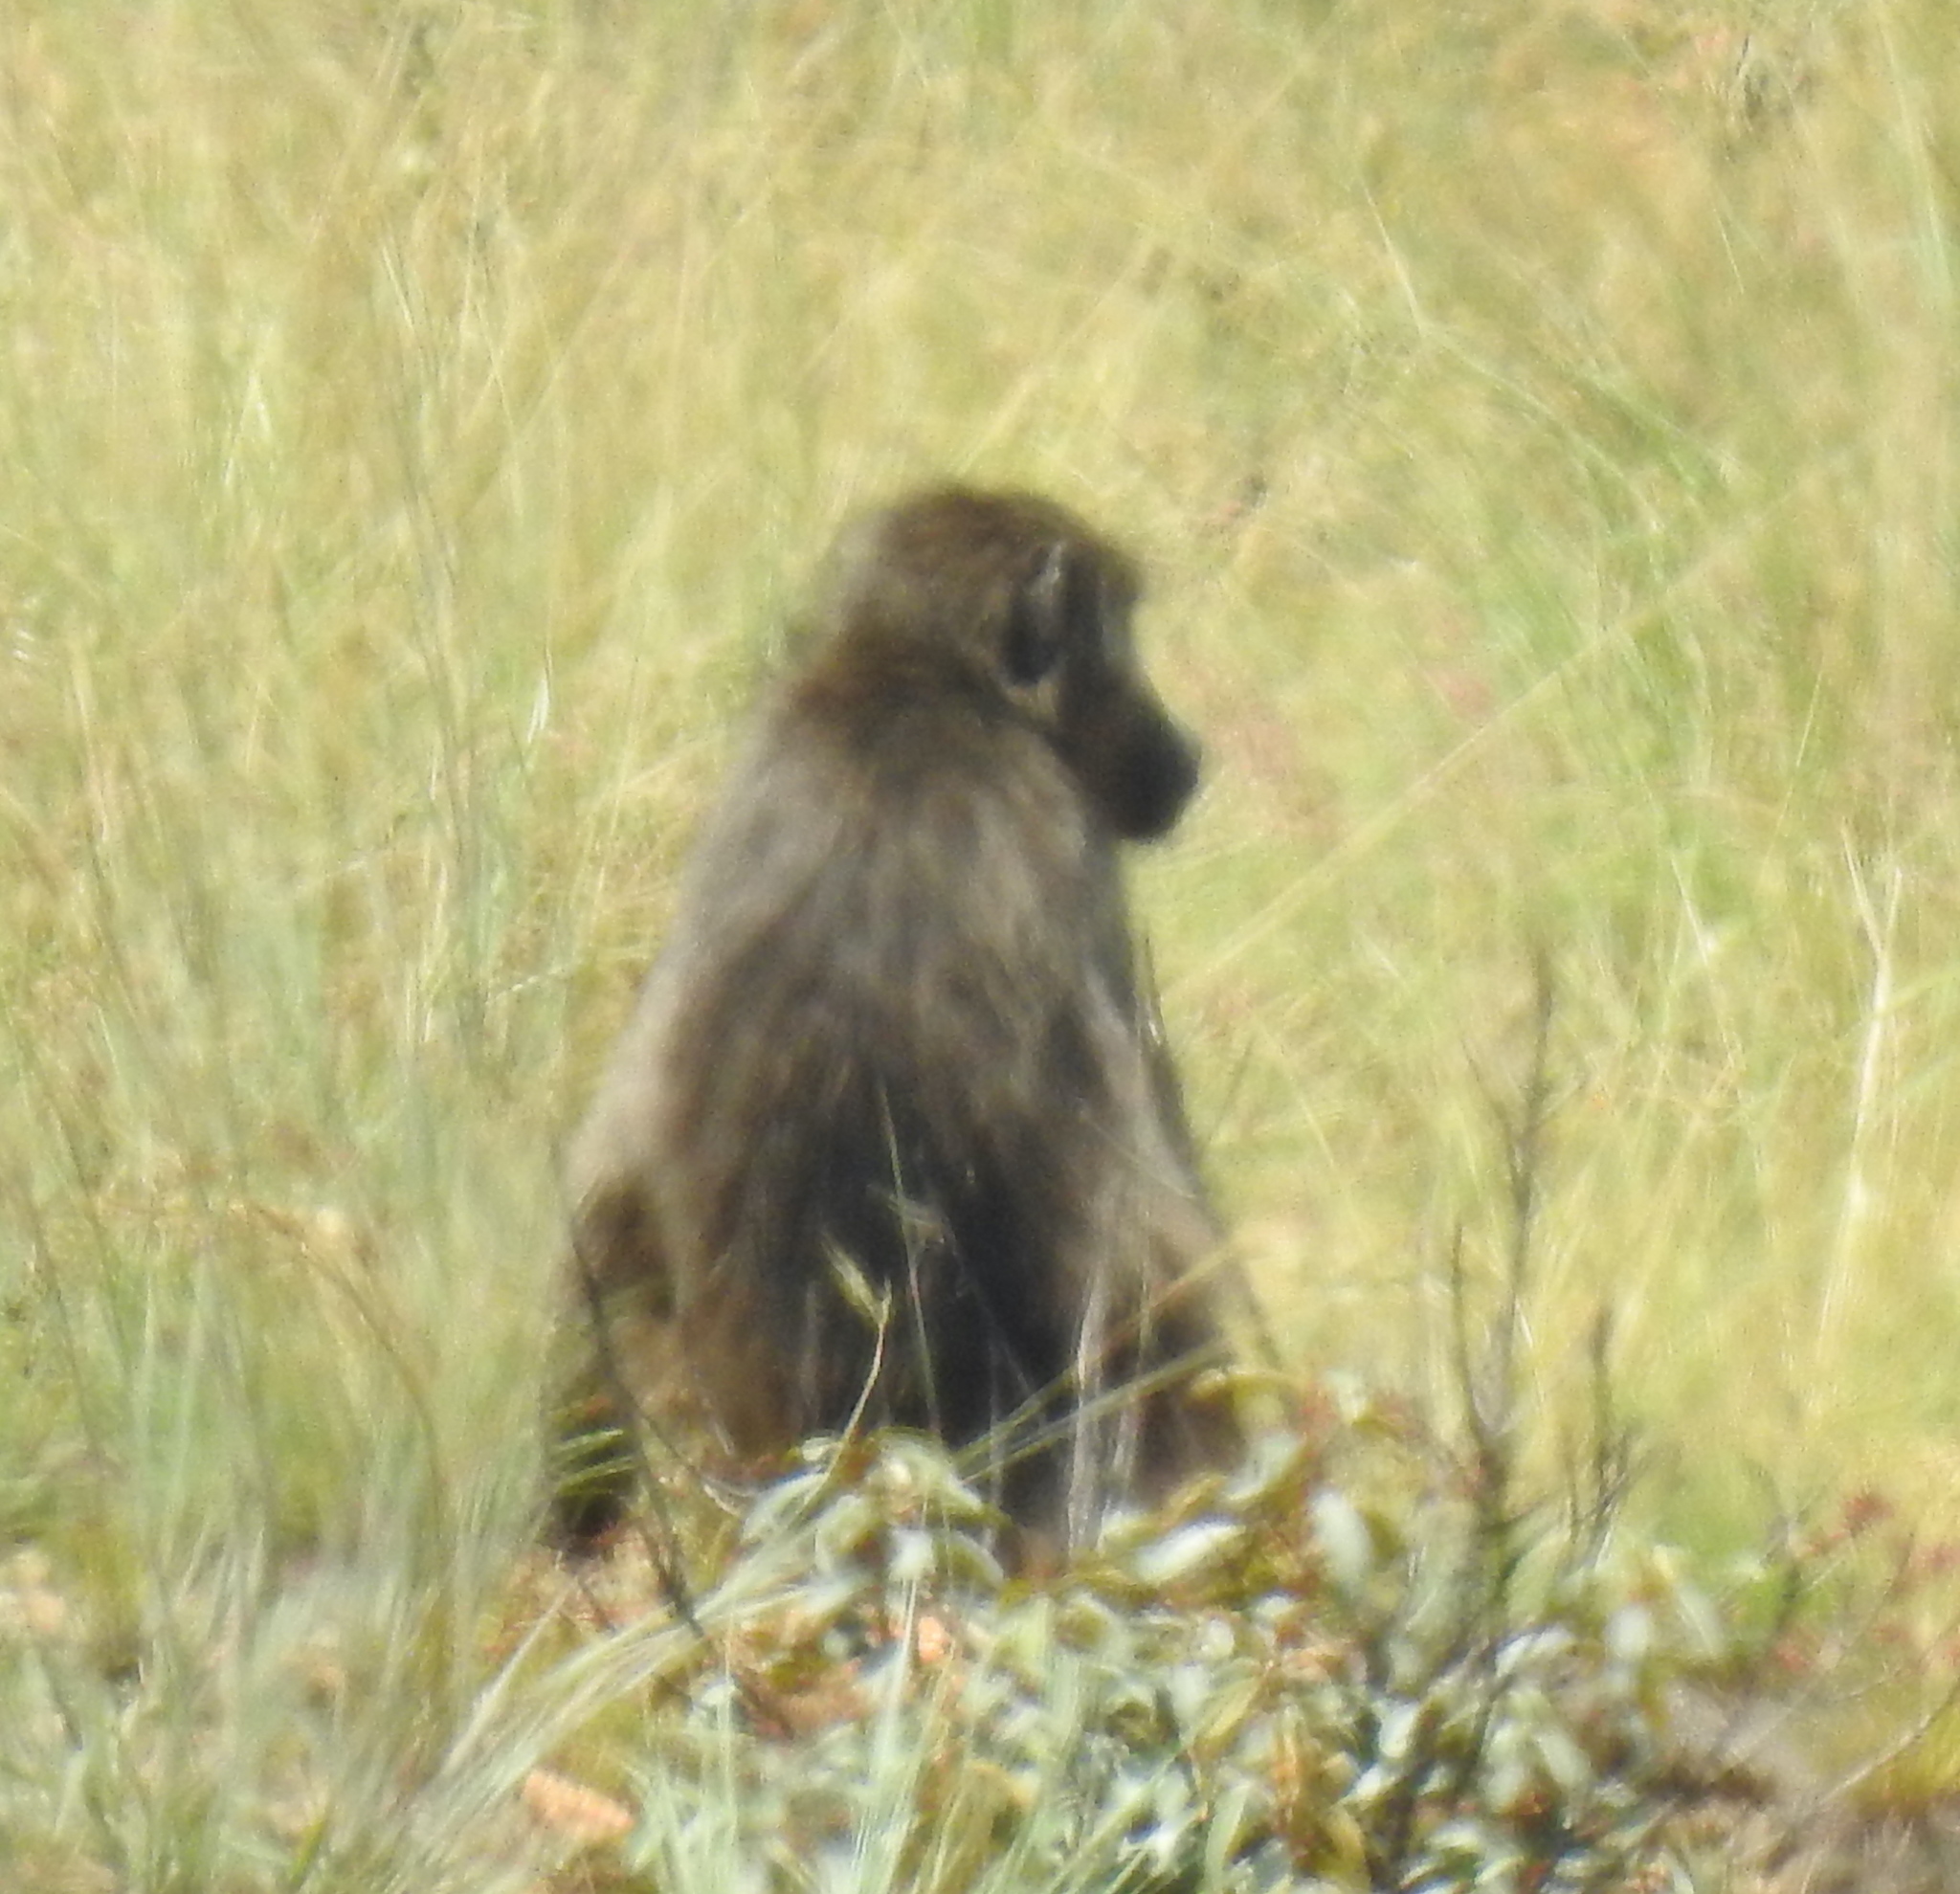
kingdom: Animalia
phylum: Chordata
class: Mammalia
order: Primates
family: Cercopithecidae
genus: Papio
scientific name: Papio ursinus
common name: Chacma baboon
